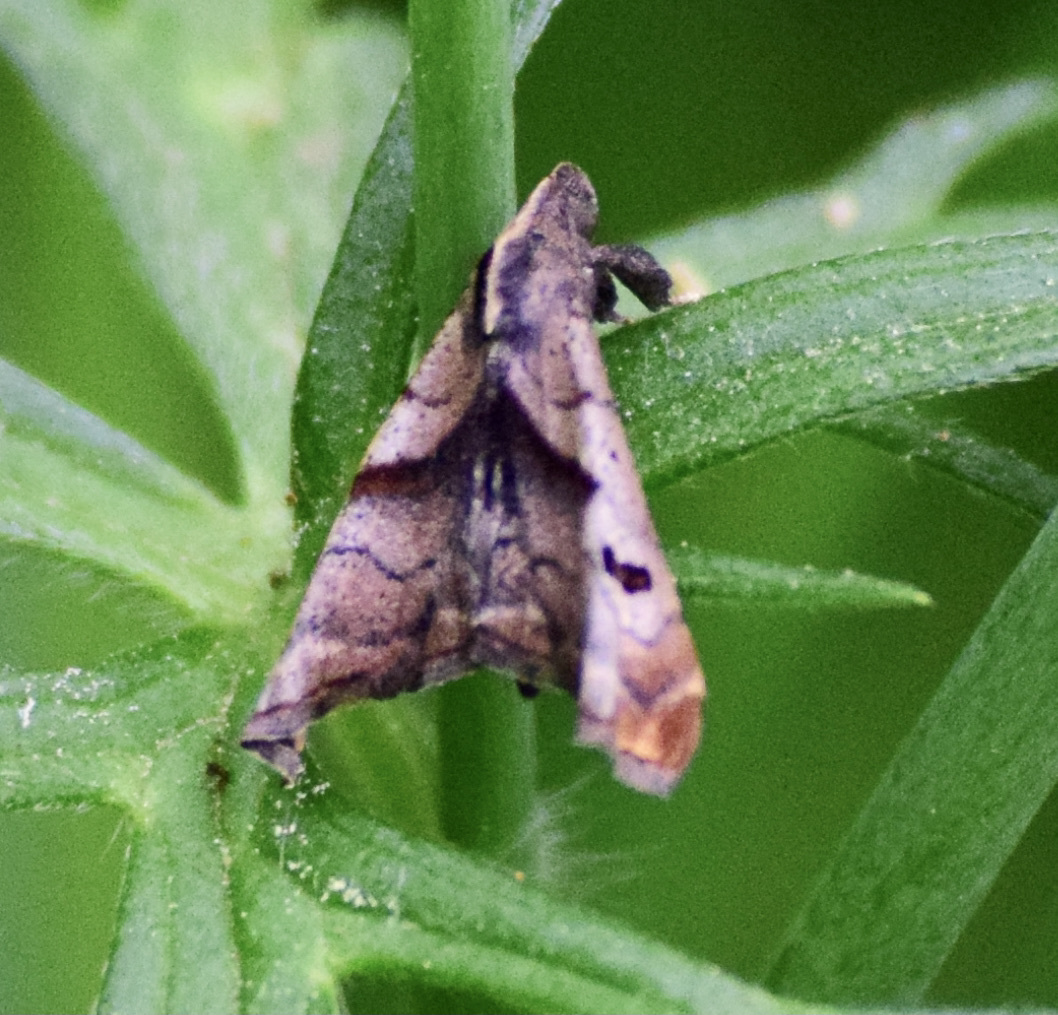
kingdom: Animalia
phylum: Arthropoda
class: Insecta
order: Lepidoptera
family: Erebidae
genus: Palthis
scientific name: Palthis angulalis
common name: Dark-spotted palthis moth
